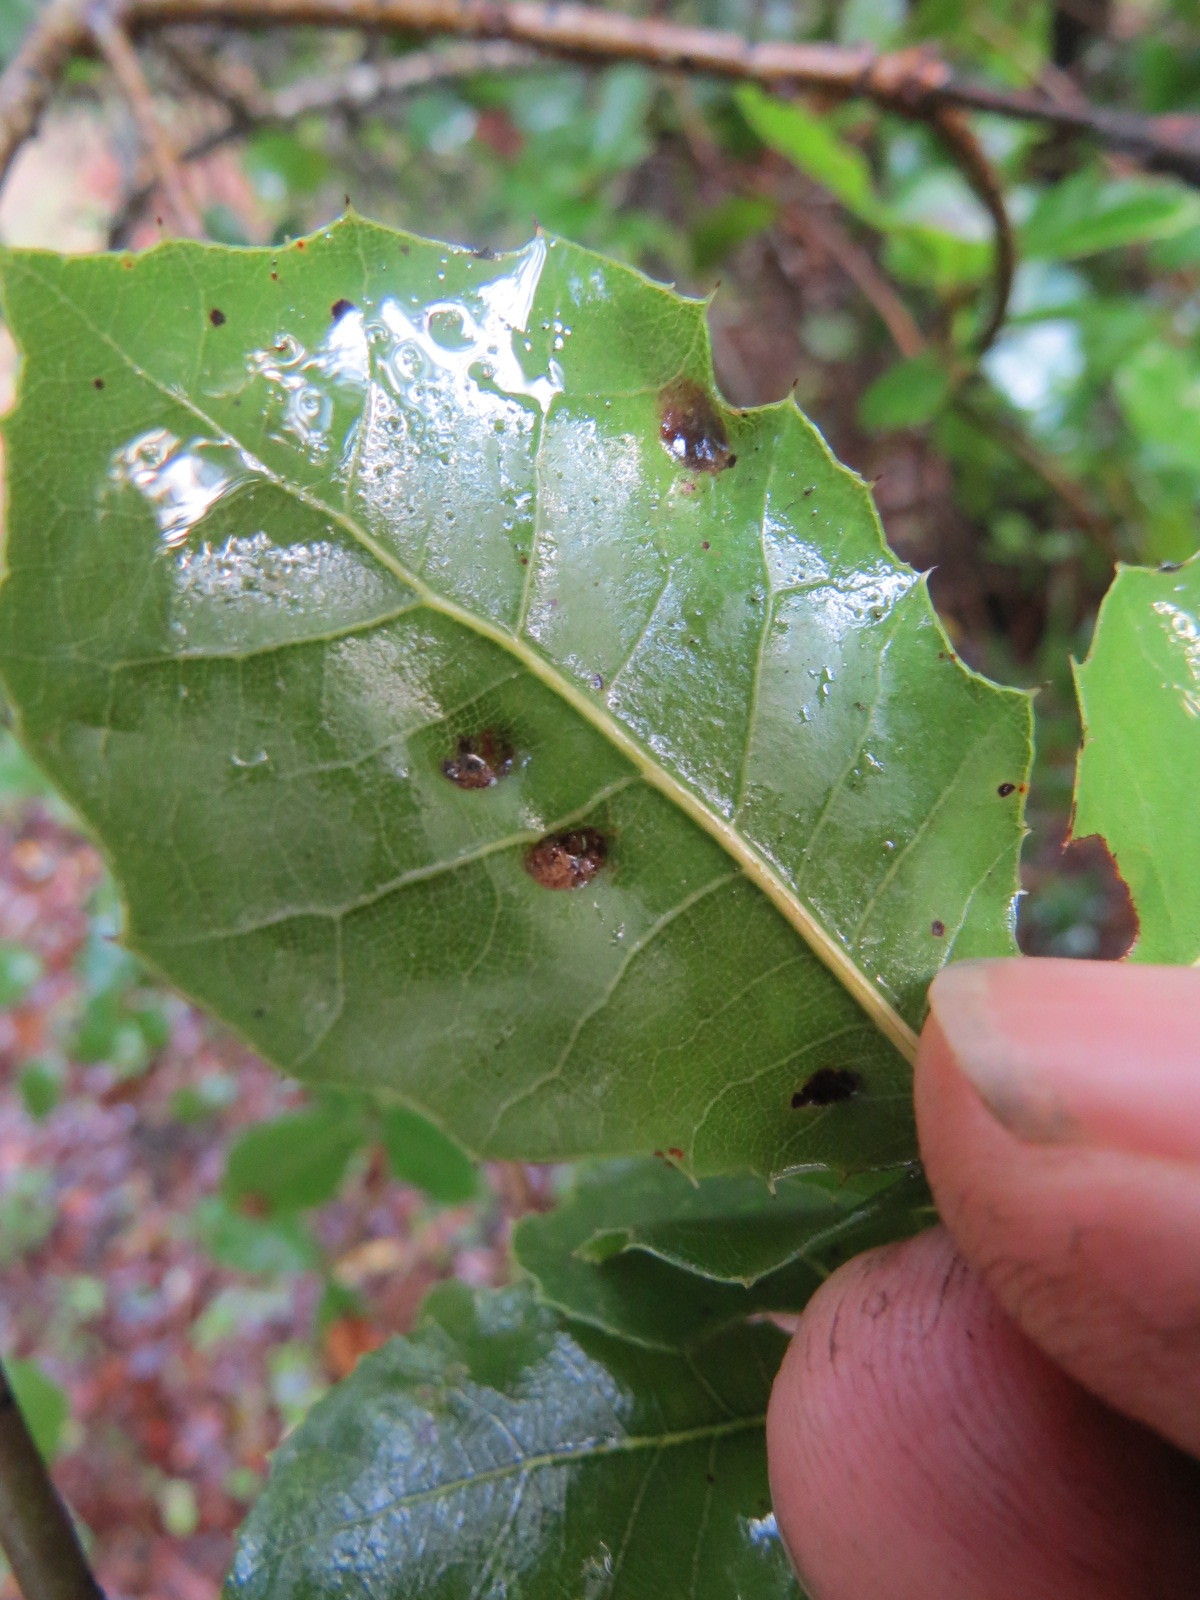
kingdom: Animalia
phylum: Arthropoda
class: Arachnida
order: Trombidiformes
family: Eriophyidae
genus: Aceria
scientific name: Aceria
